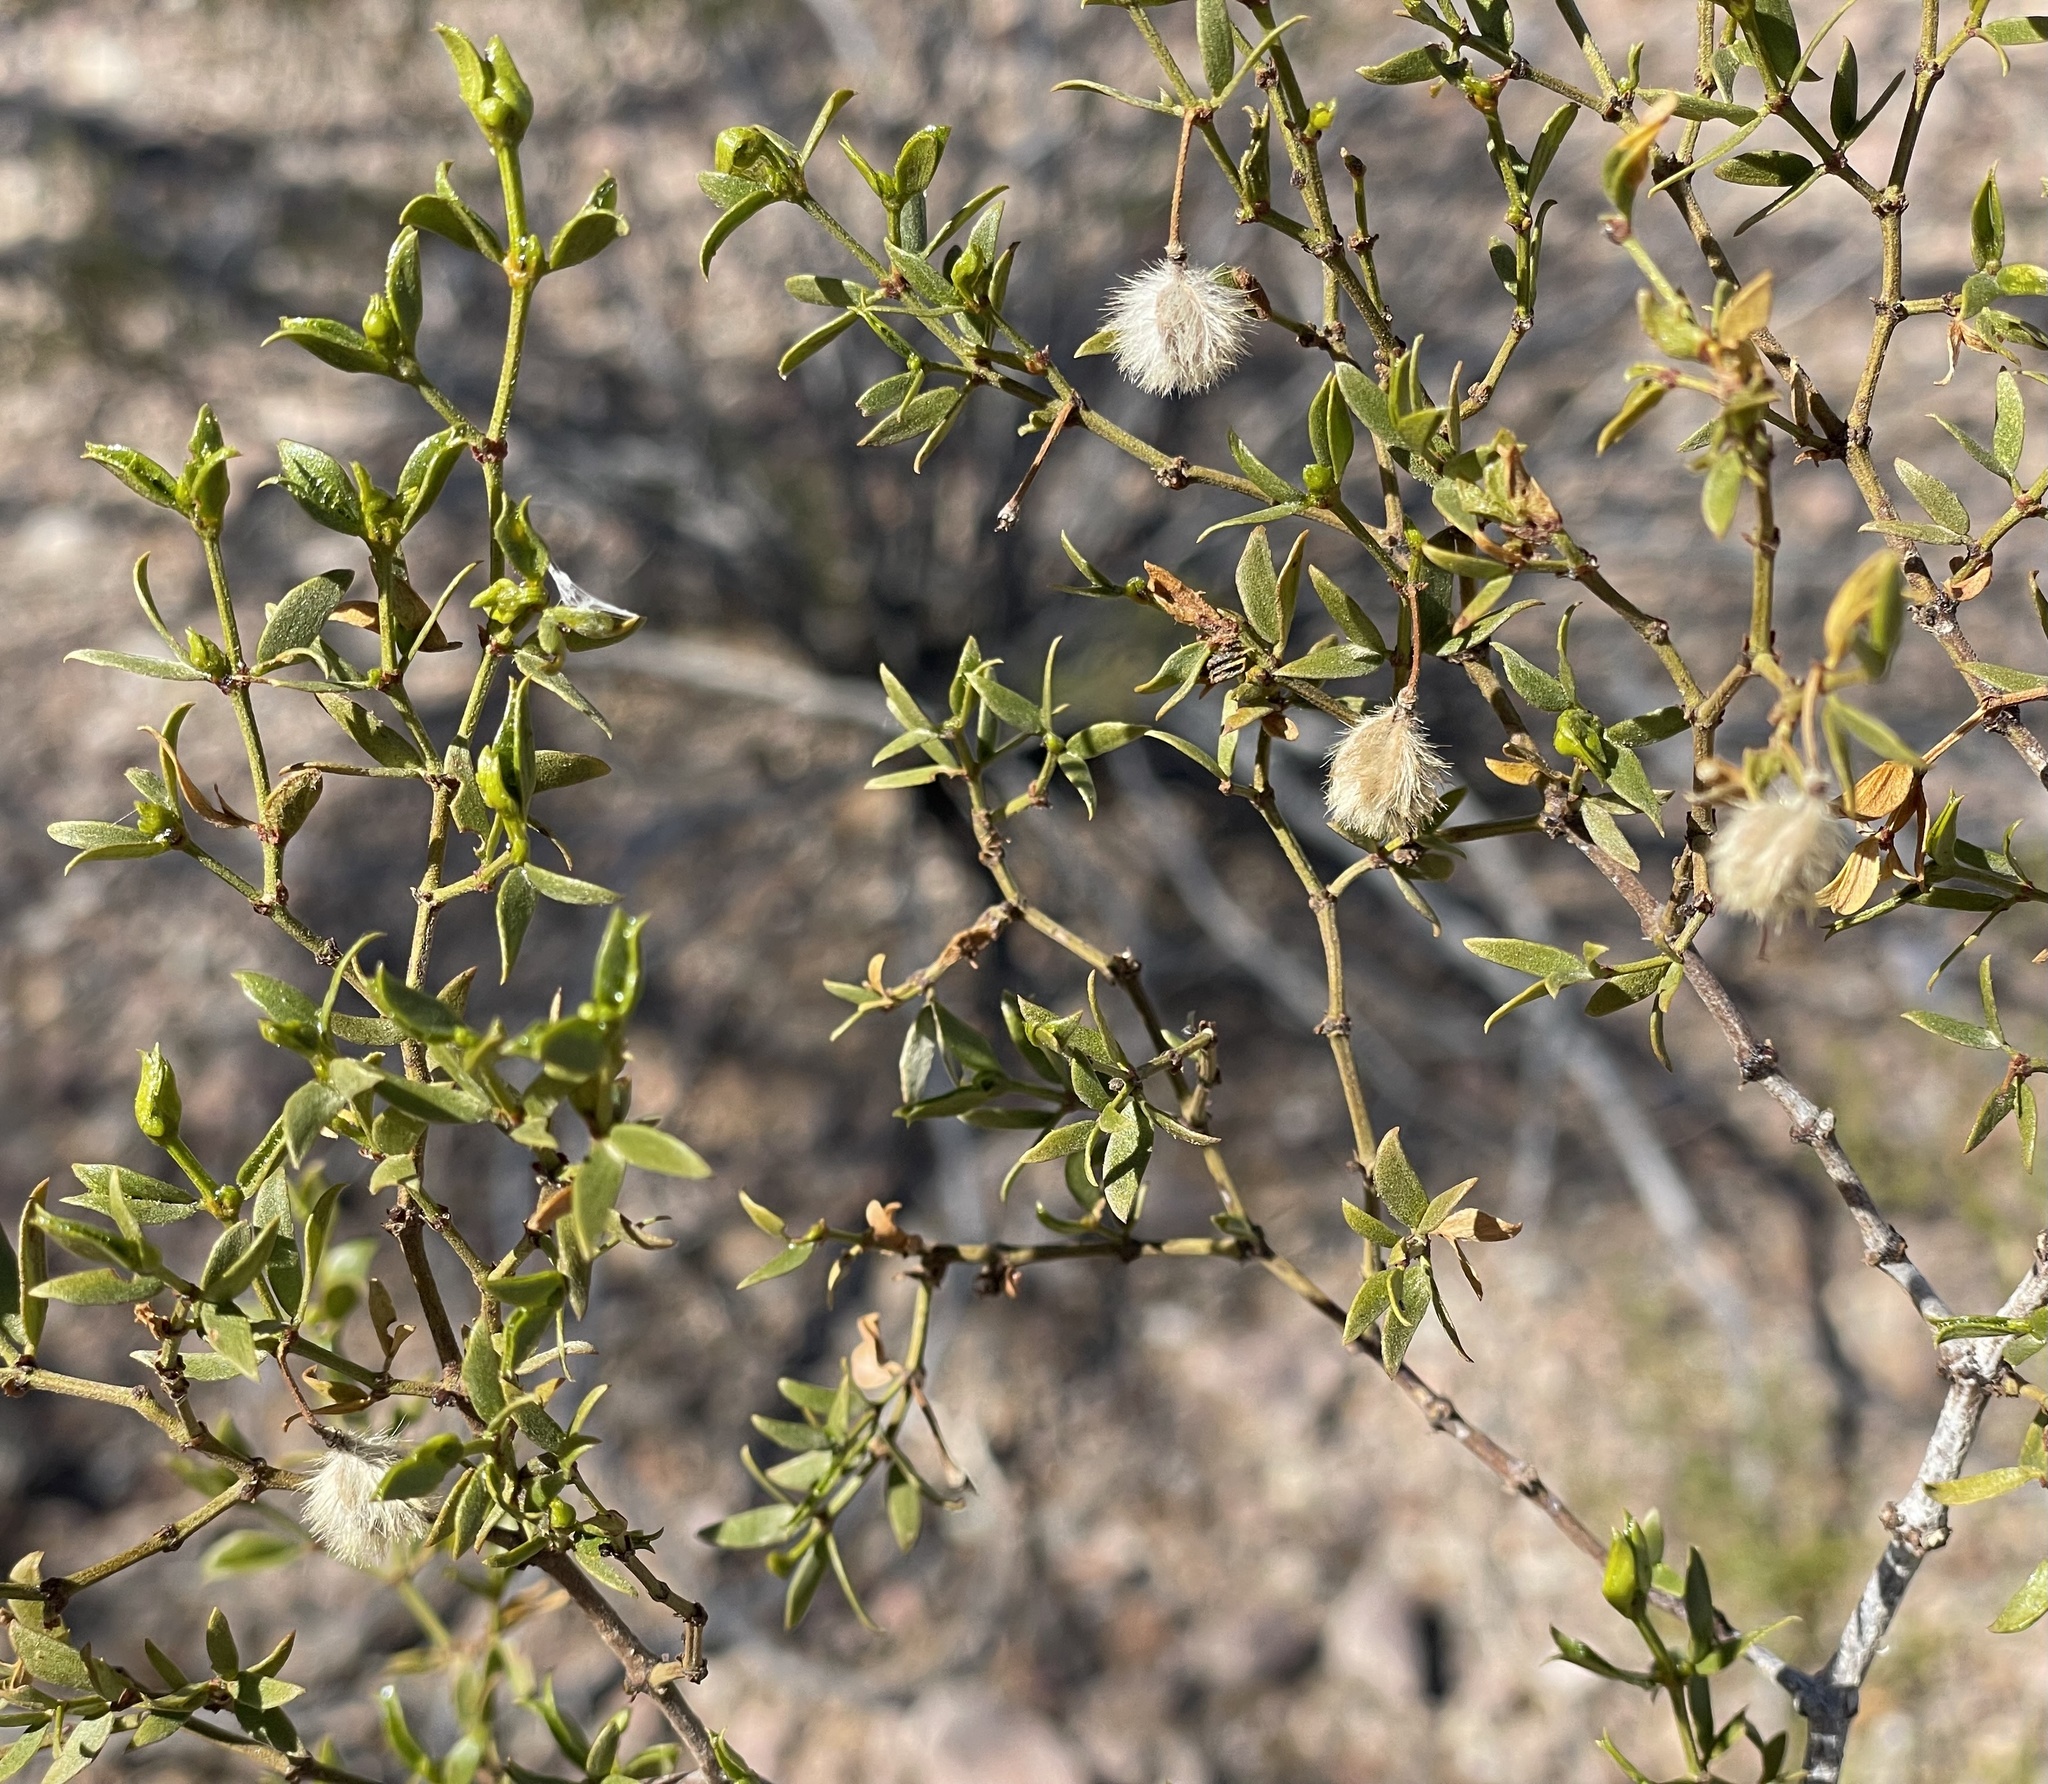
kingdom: Plantae
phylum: Tracheophyta
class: Magnoliopsida
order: Zygophyllales
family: Zygophyllaceae
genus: Larrea
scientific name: Larrea tridentata
